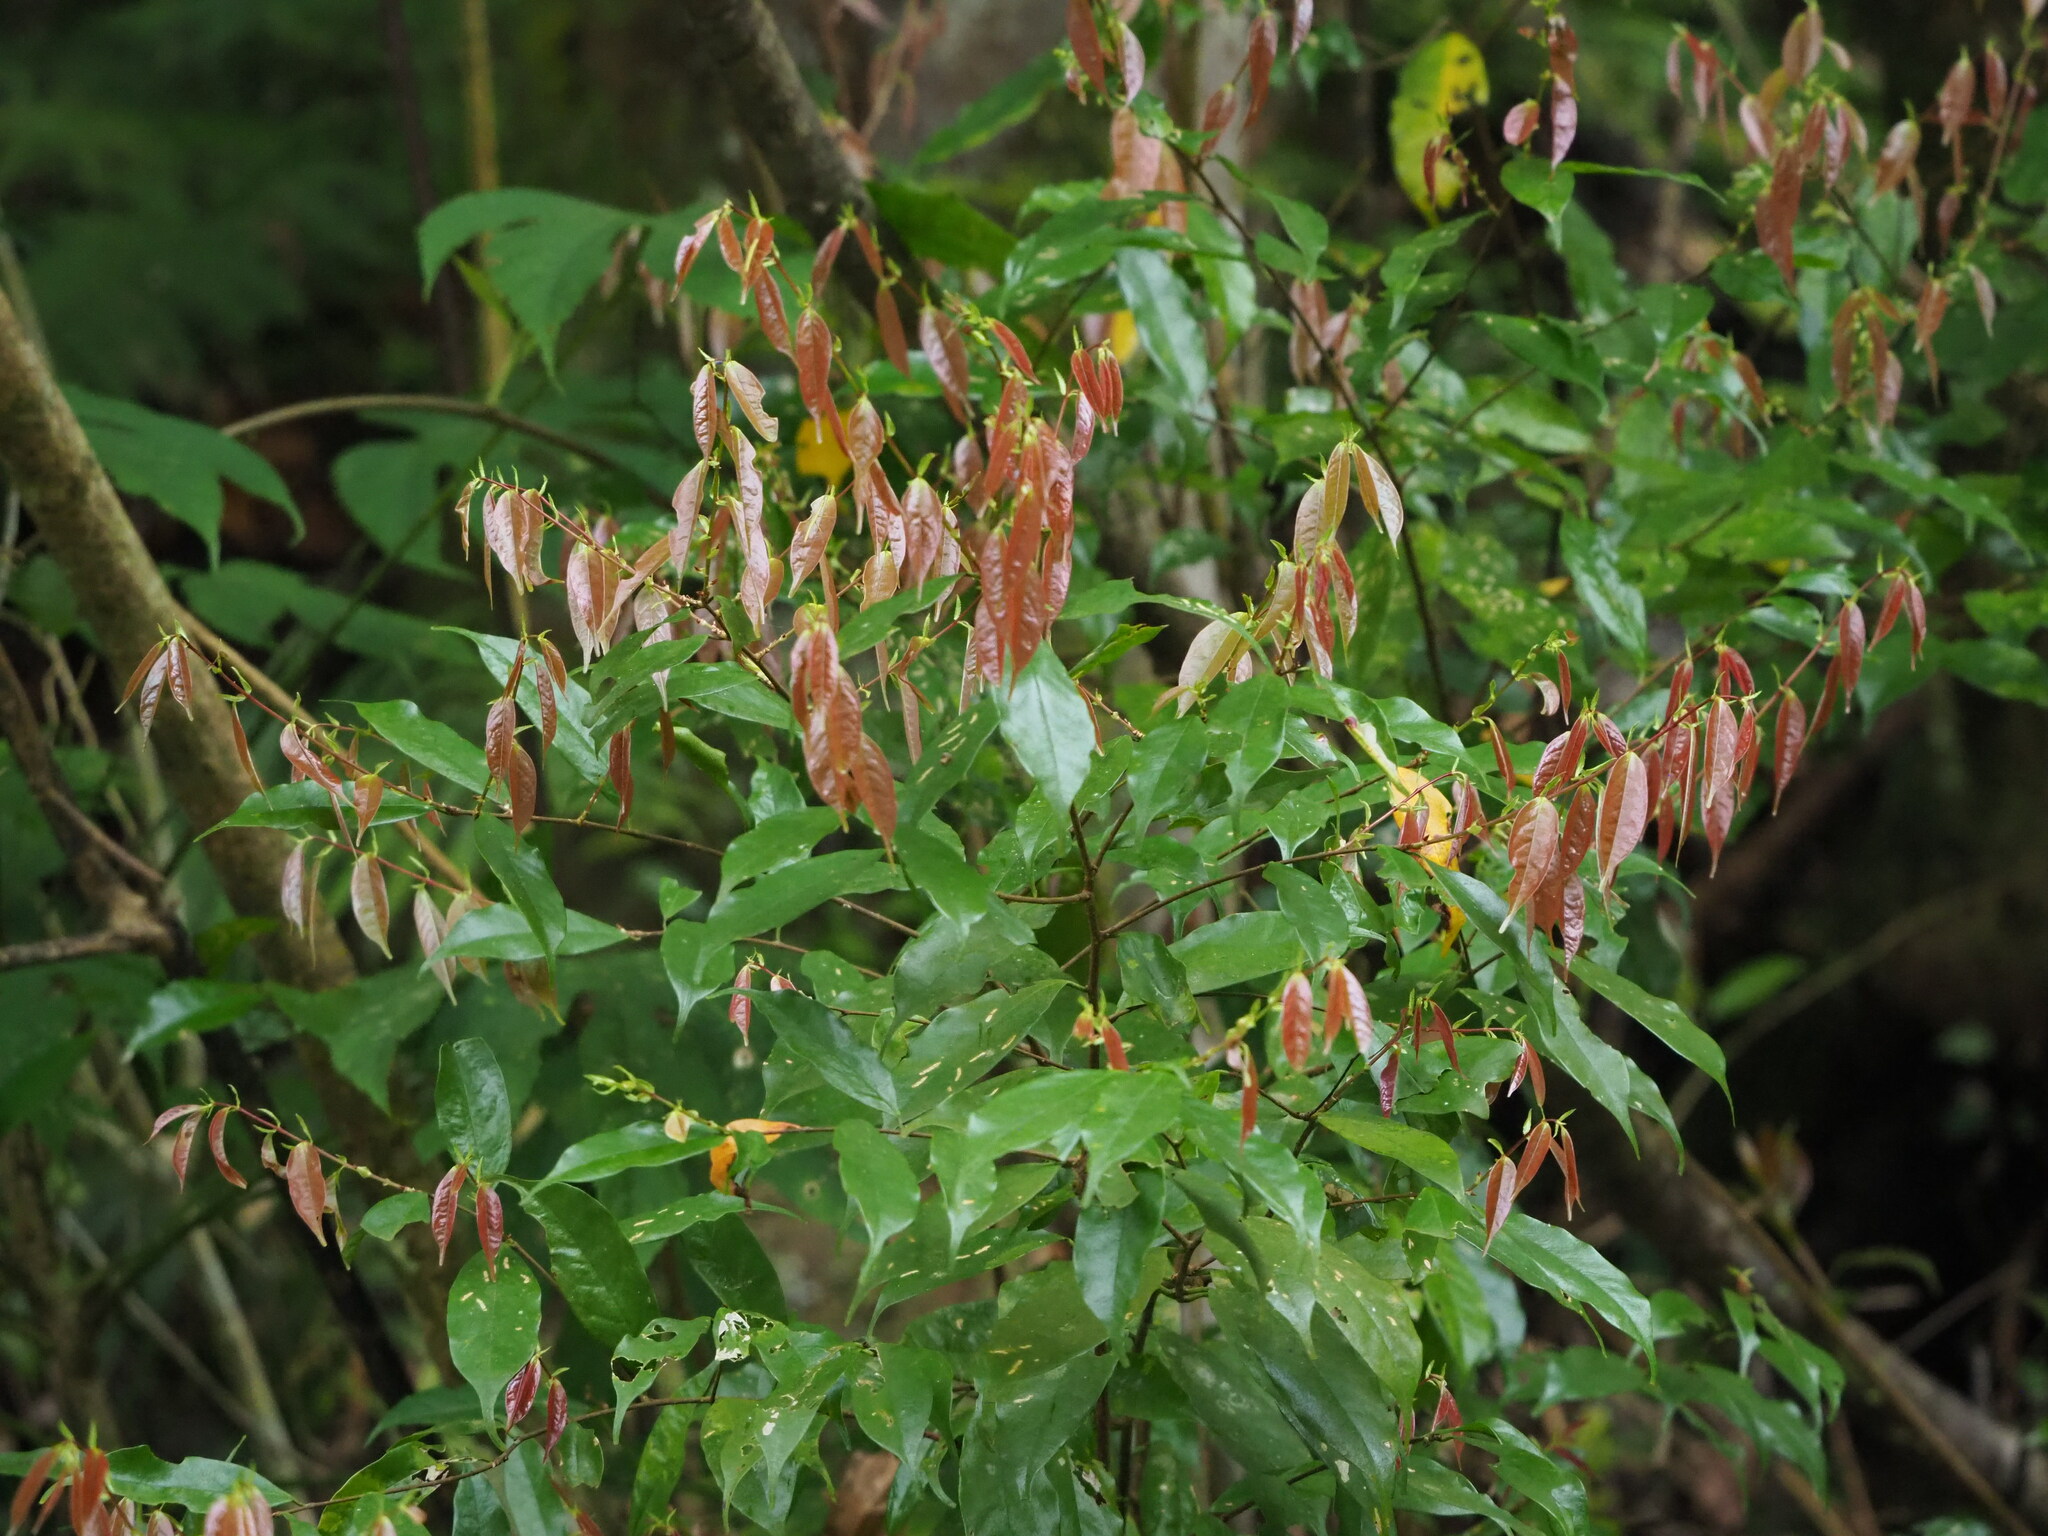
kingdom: Plantae
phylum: Tracheophyta
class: Magnoliopsida
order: Rosales
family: Rosaceae
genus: Prunus
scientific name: Prunus phaeosticta
